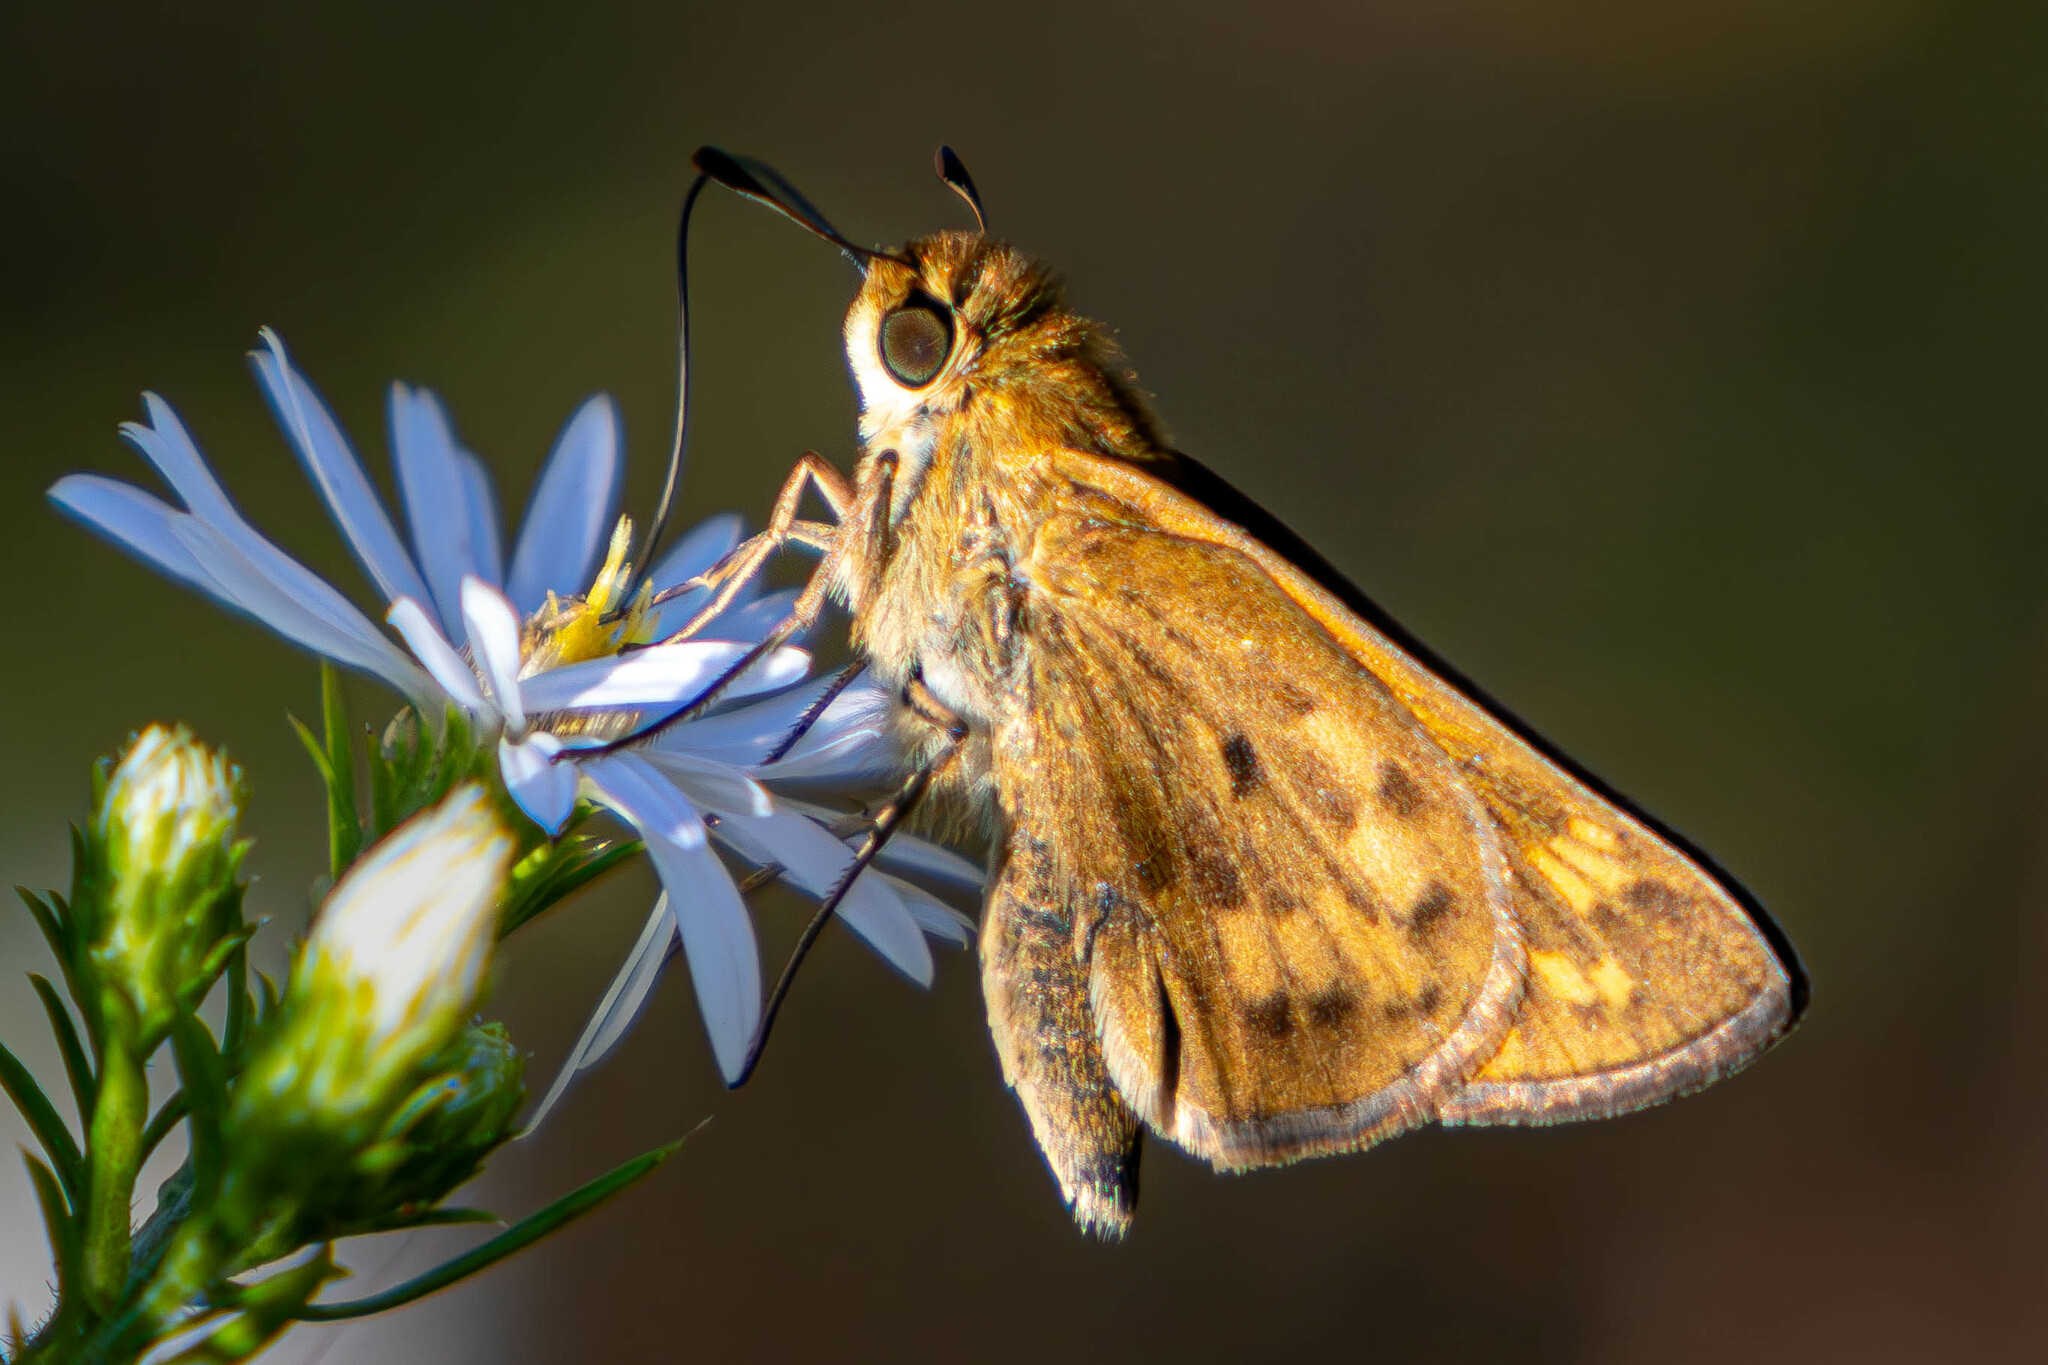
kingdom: Animalia
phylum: Arthropoda
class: Insecta
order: Lepidoptera
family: Hesperiidae
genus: Hylephila
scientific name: Hylephila phyleus
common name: Fiery skipper
